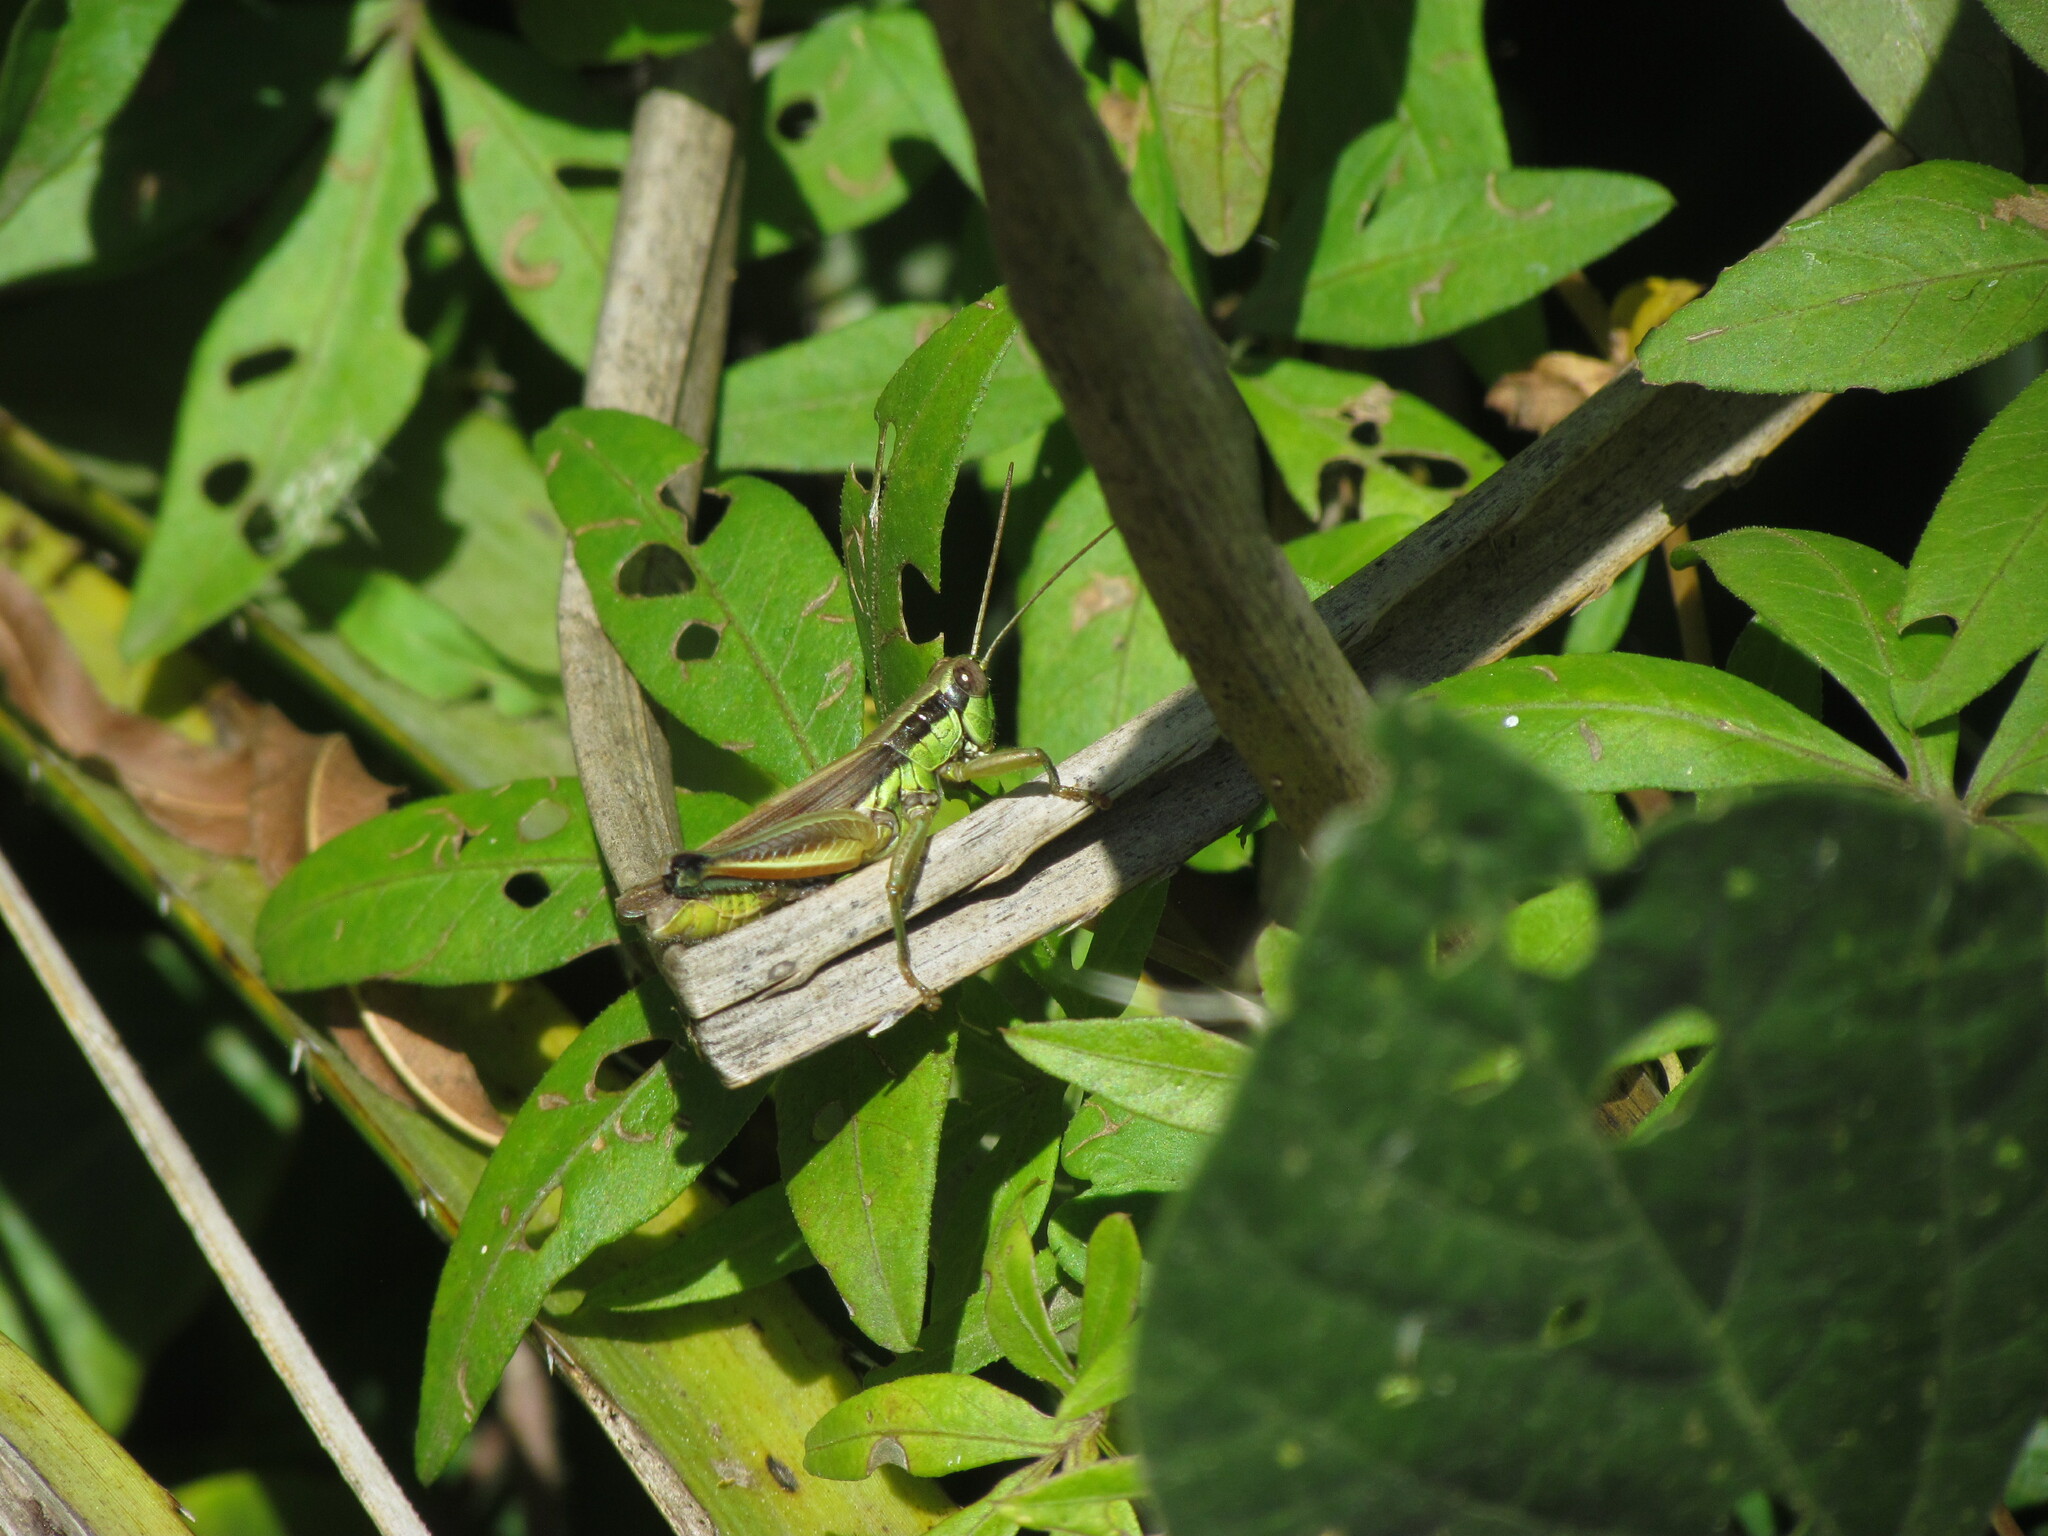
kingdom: Animalia
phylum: Arthropoda
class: Insecta
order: Orthoptera
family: Acrididae
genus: Scotussa
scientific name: Scotussa impudica
